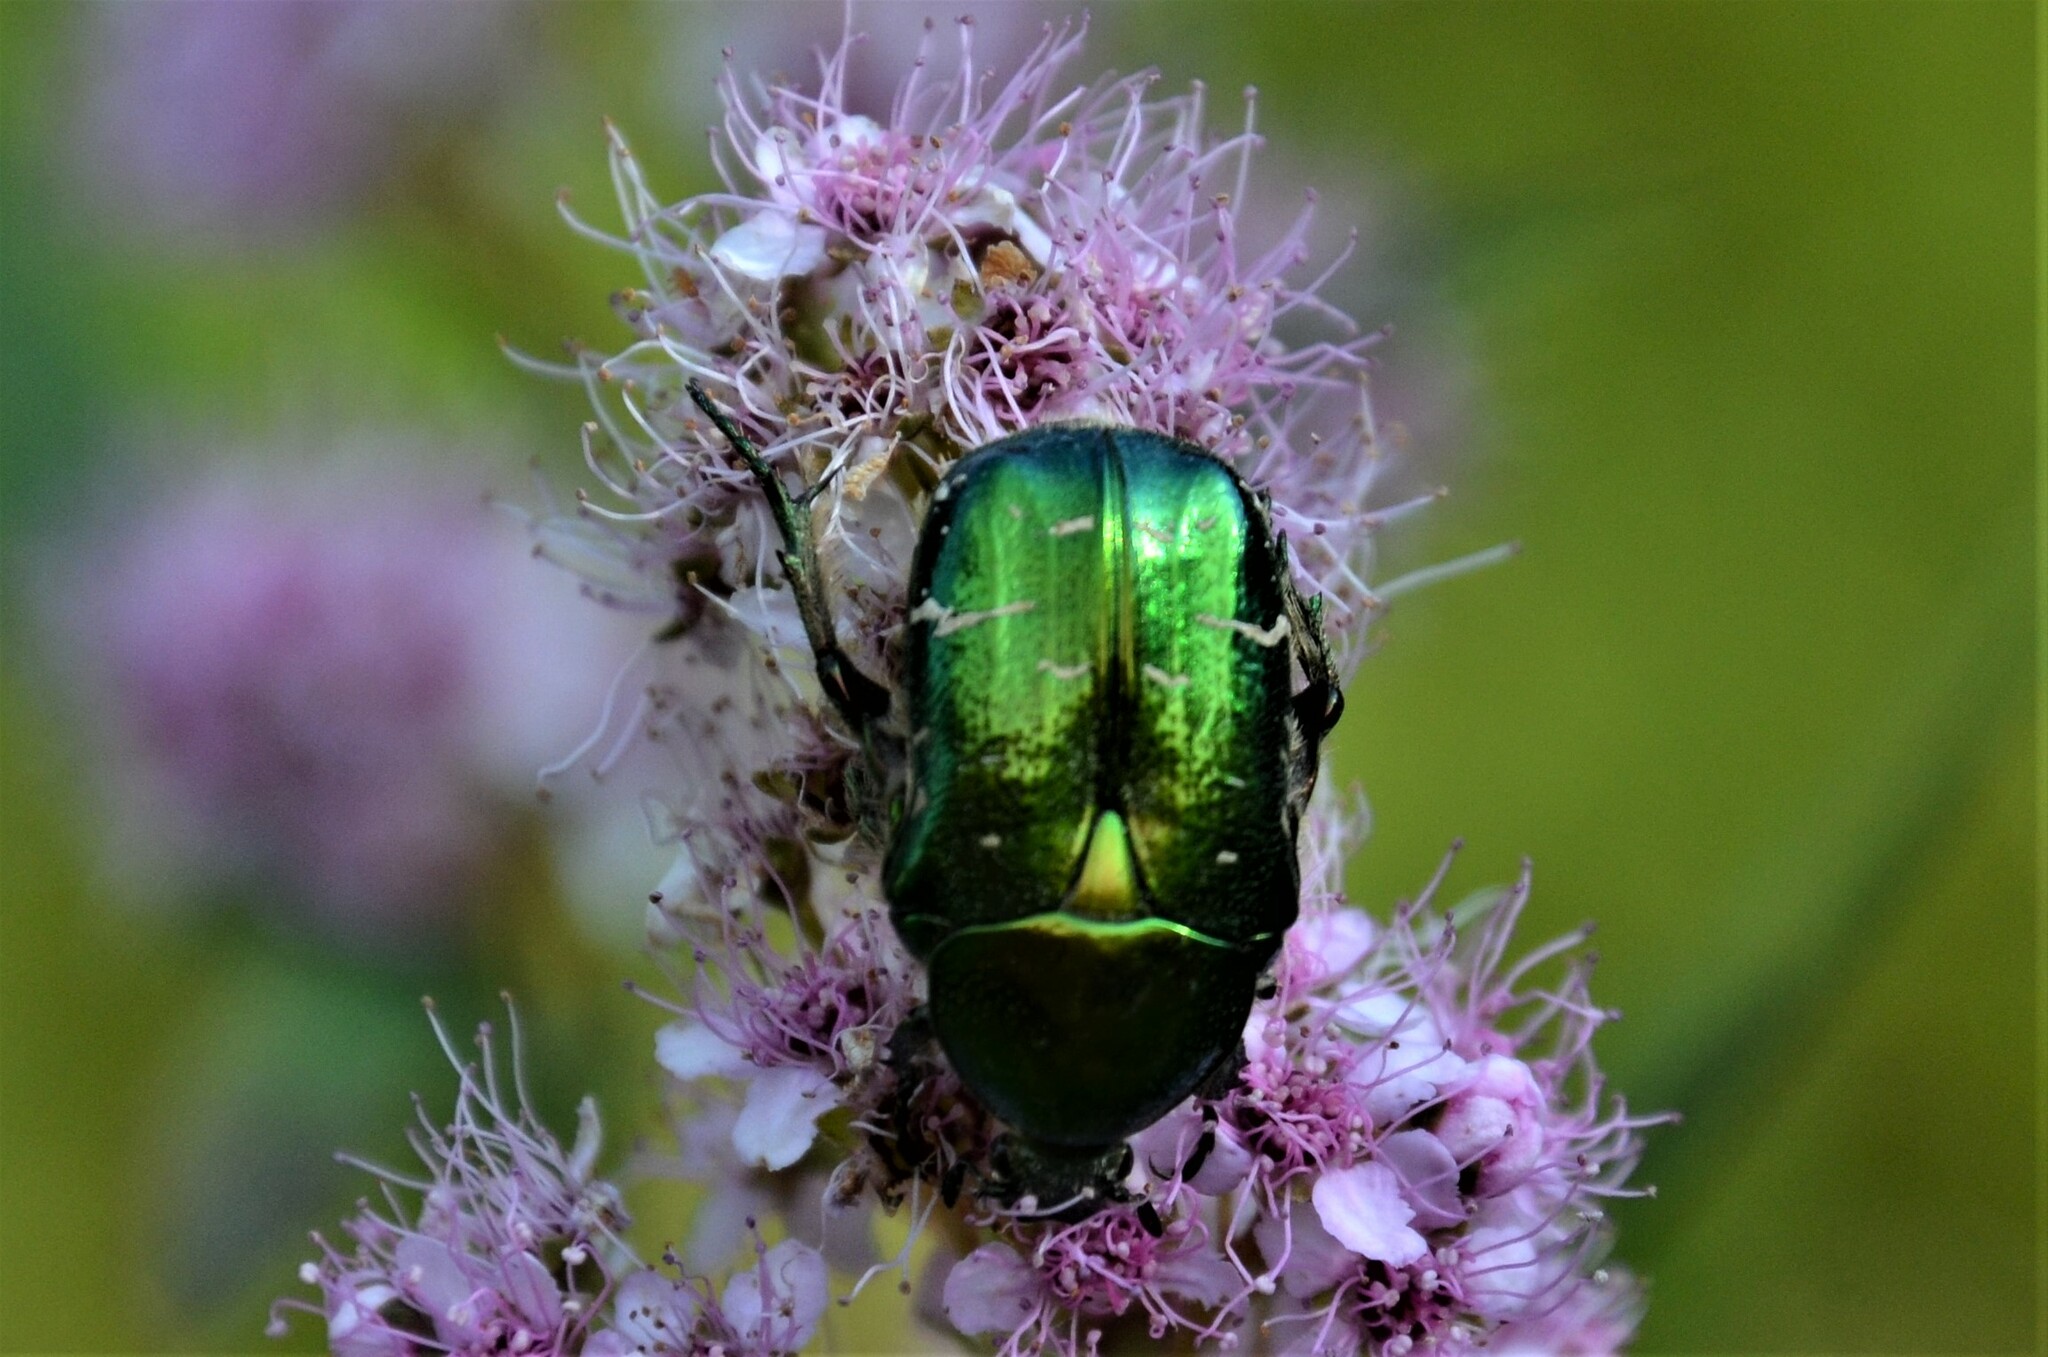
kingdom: Animalia
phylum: Arthropoda
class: Insecta
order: Coleoptera
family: Scarabaeidae
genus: Cetonia
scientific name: Cetonia aurata
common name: Rose chafer
